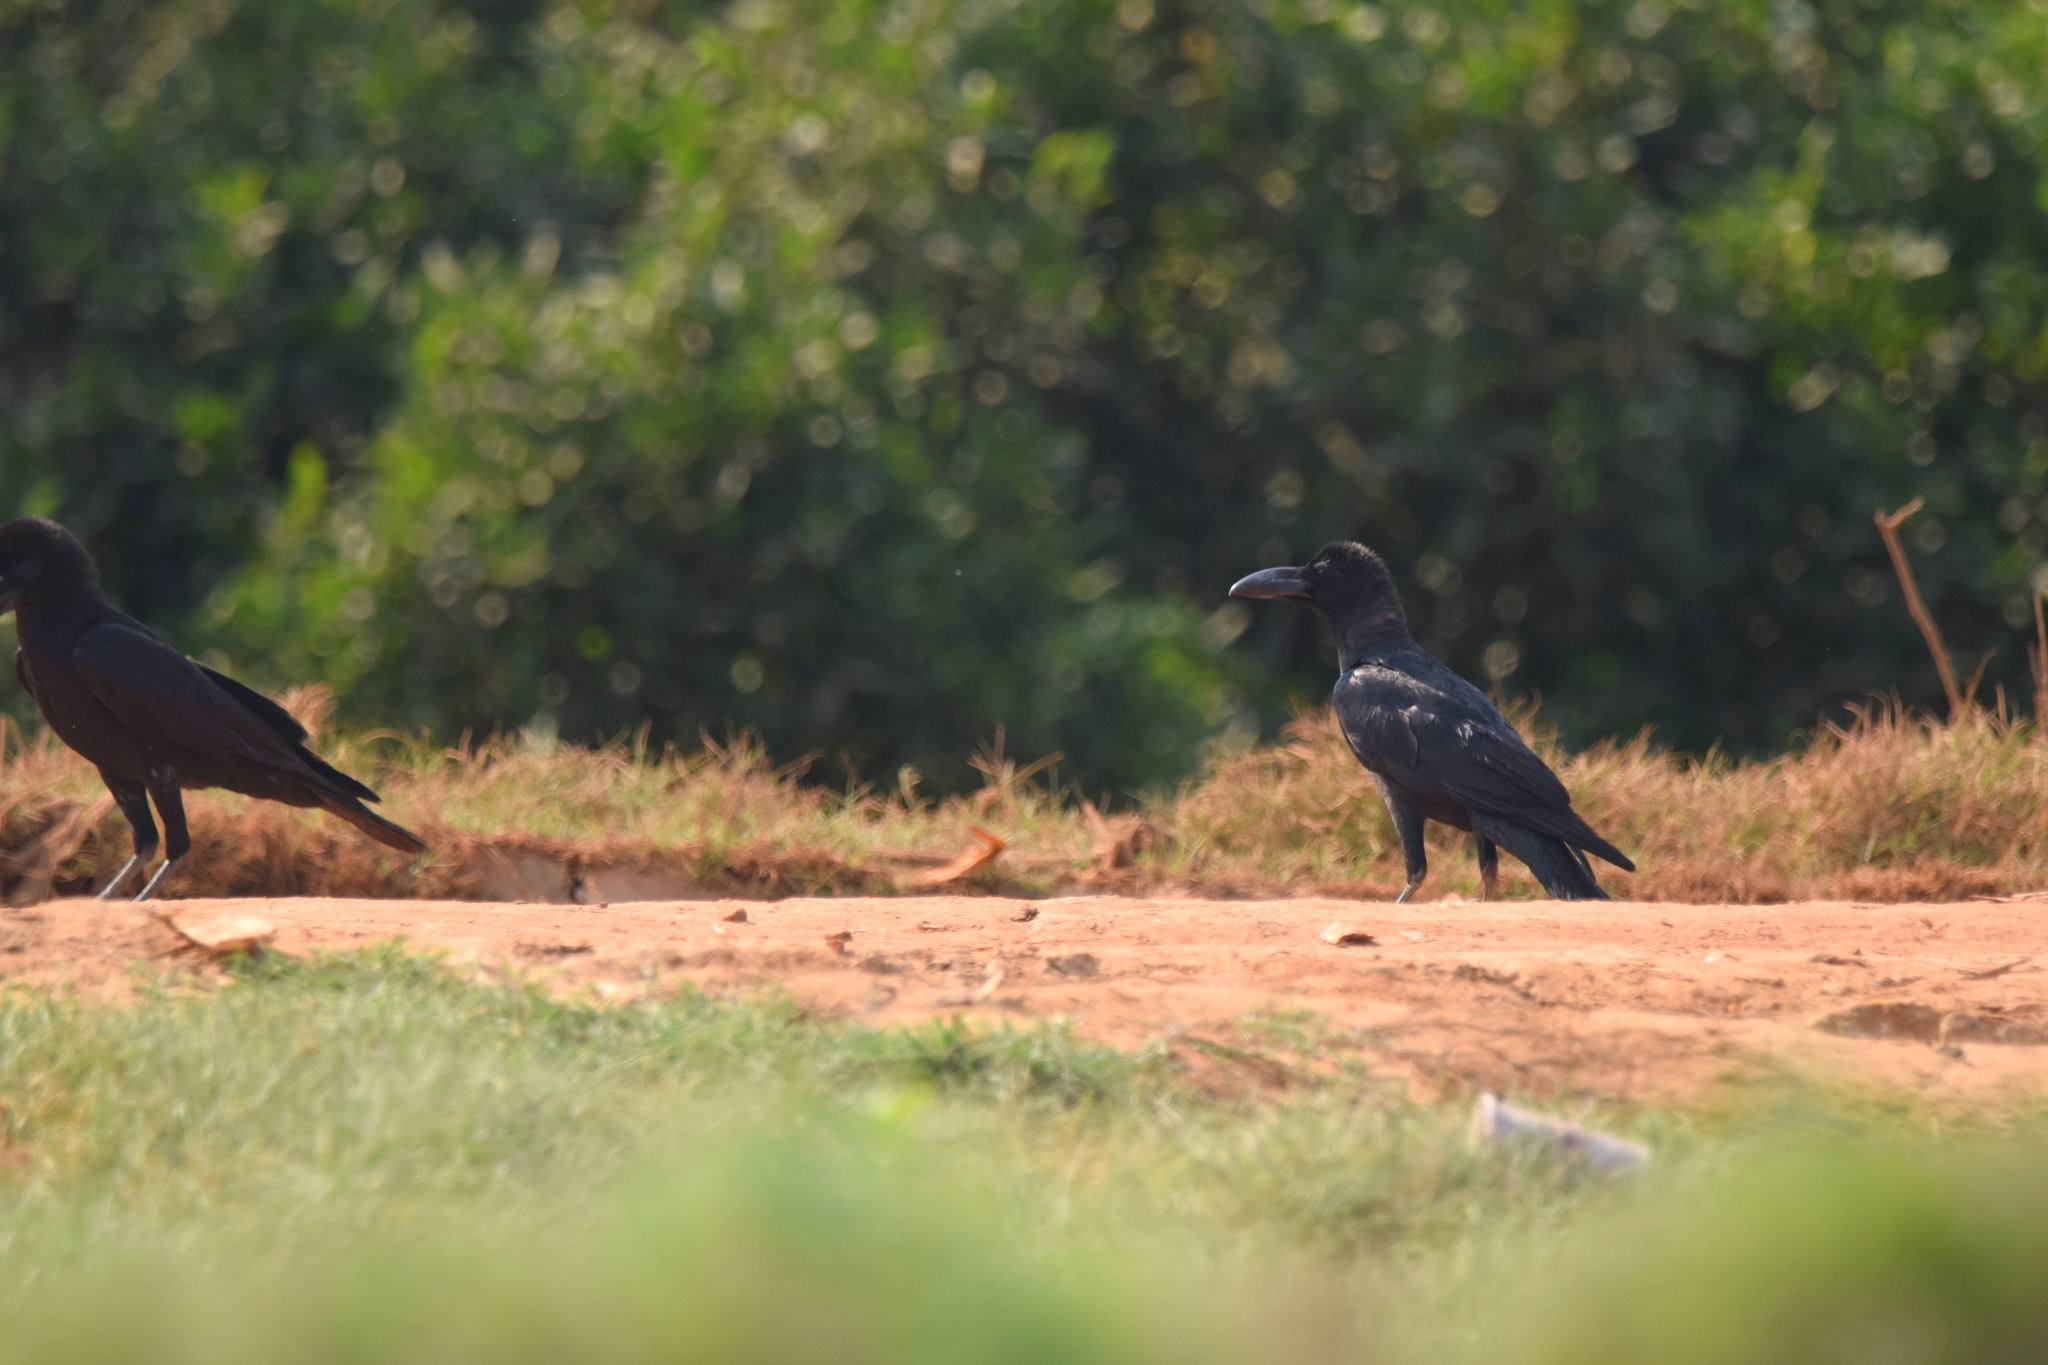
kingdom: Animalia
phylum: Chordata
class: Aves
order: Passeriformes
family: Corvidae
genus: Corvus
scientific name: Corvus macrorhynchos
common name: Large-billed crow
